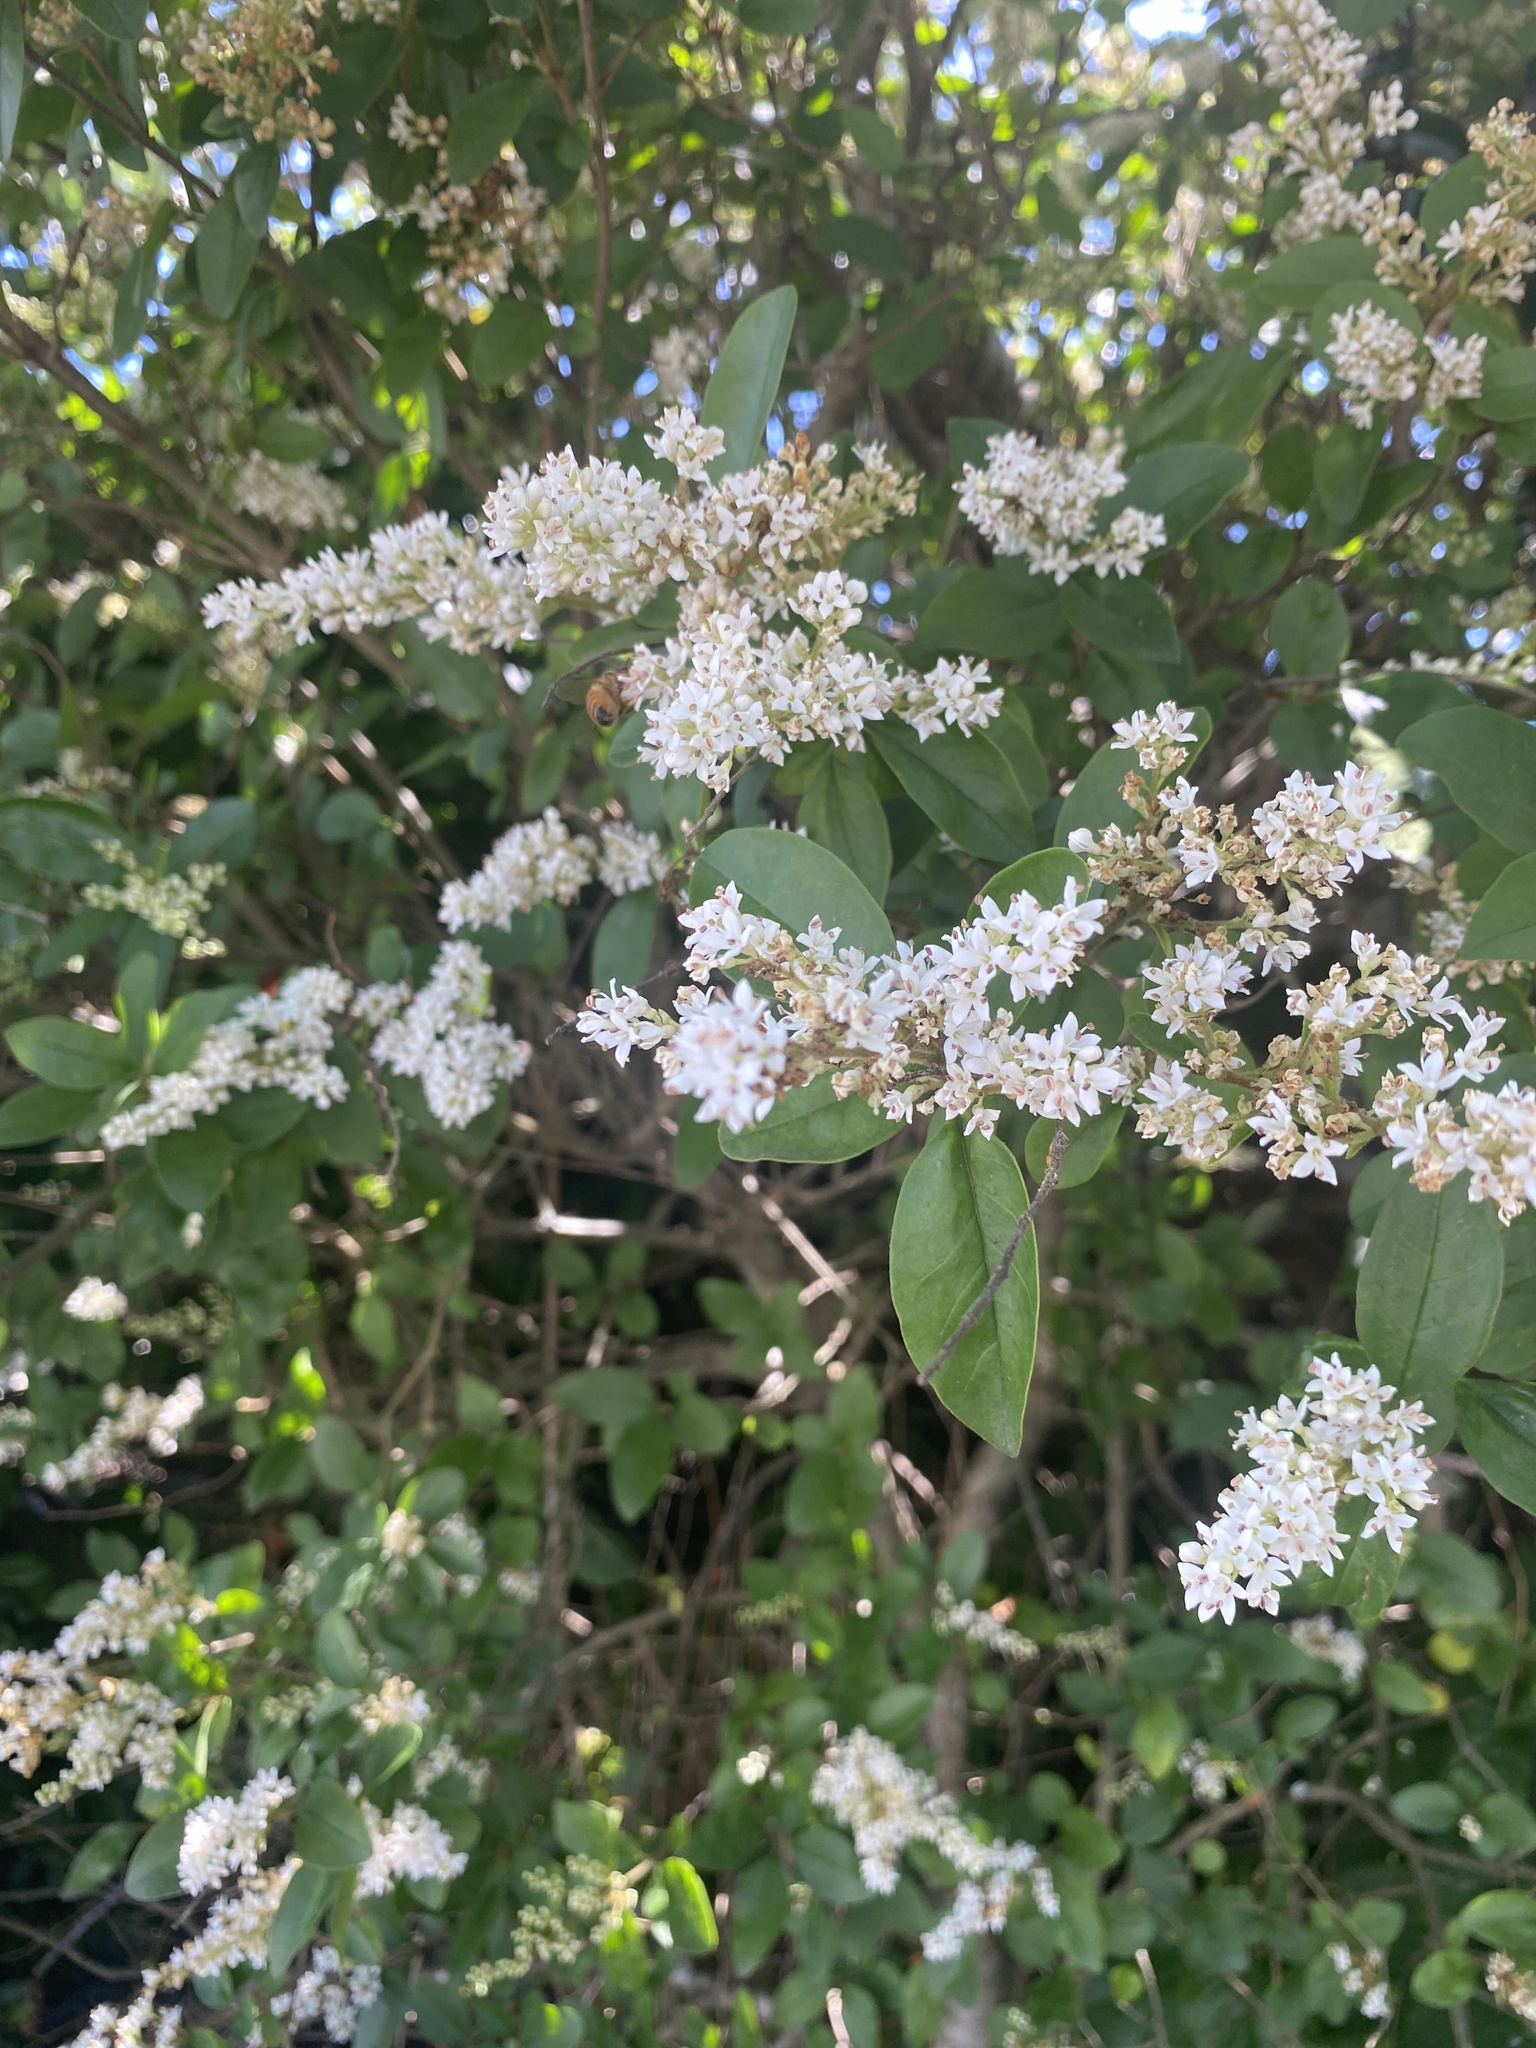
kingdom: Plantae
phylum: Tracheophyta
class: Magnoliopsida
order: Lamiales
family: Oleaceae
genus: Ligustrum
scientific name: Ligustrum sinense
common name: Chinese privet
